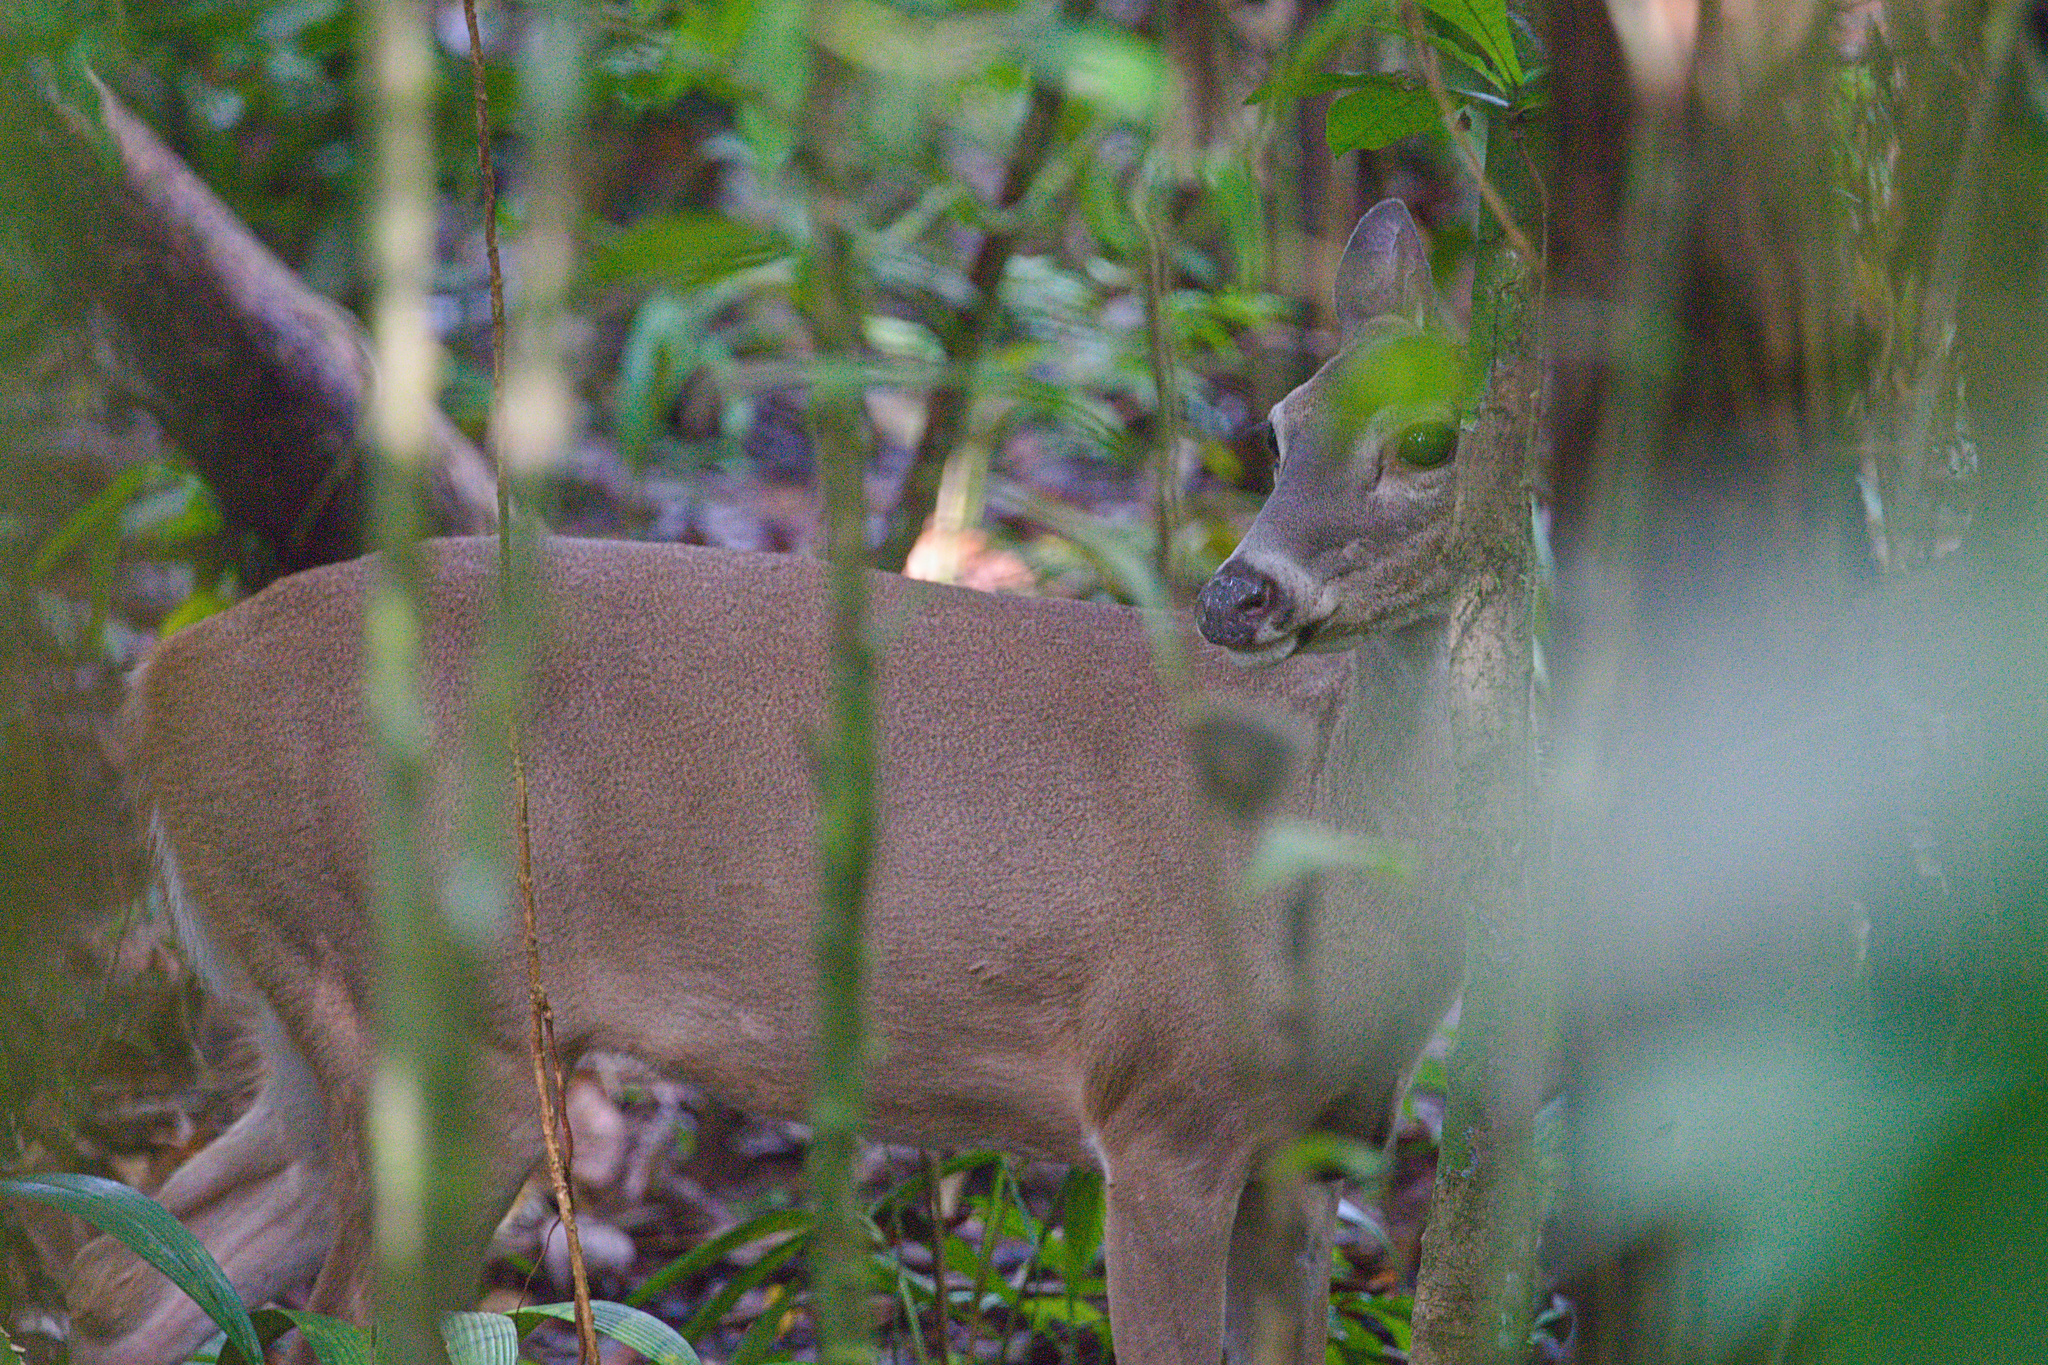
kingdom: Animalia
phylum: Chordata
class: Mammalia
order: Artiodactyla
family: Cervidae
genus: Odocoileus
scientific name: Odocoileus virginianus
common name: White-tailed deer
